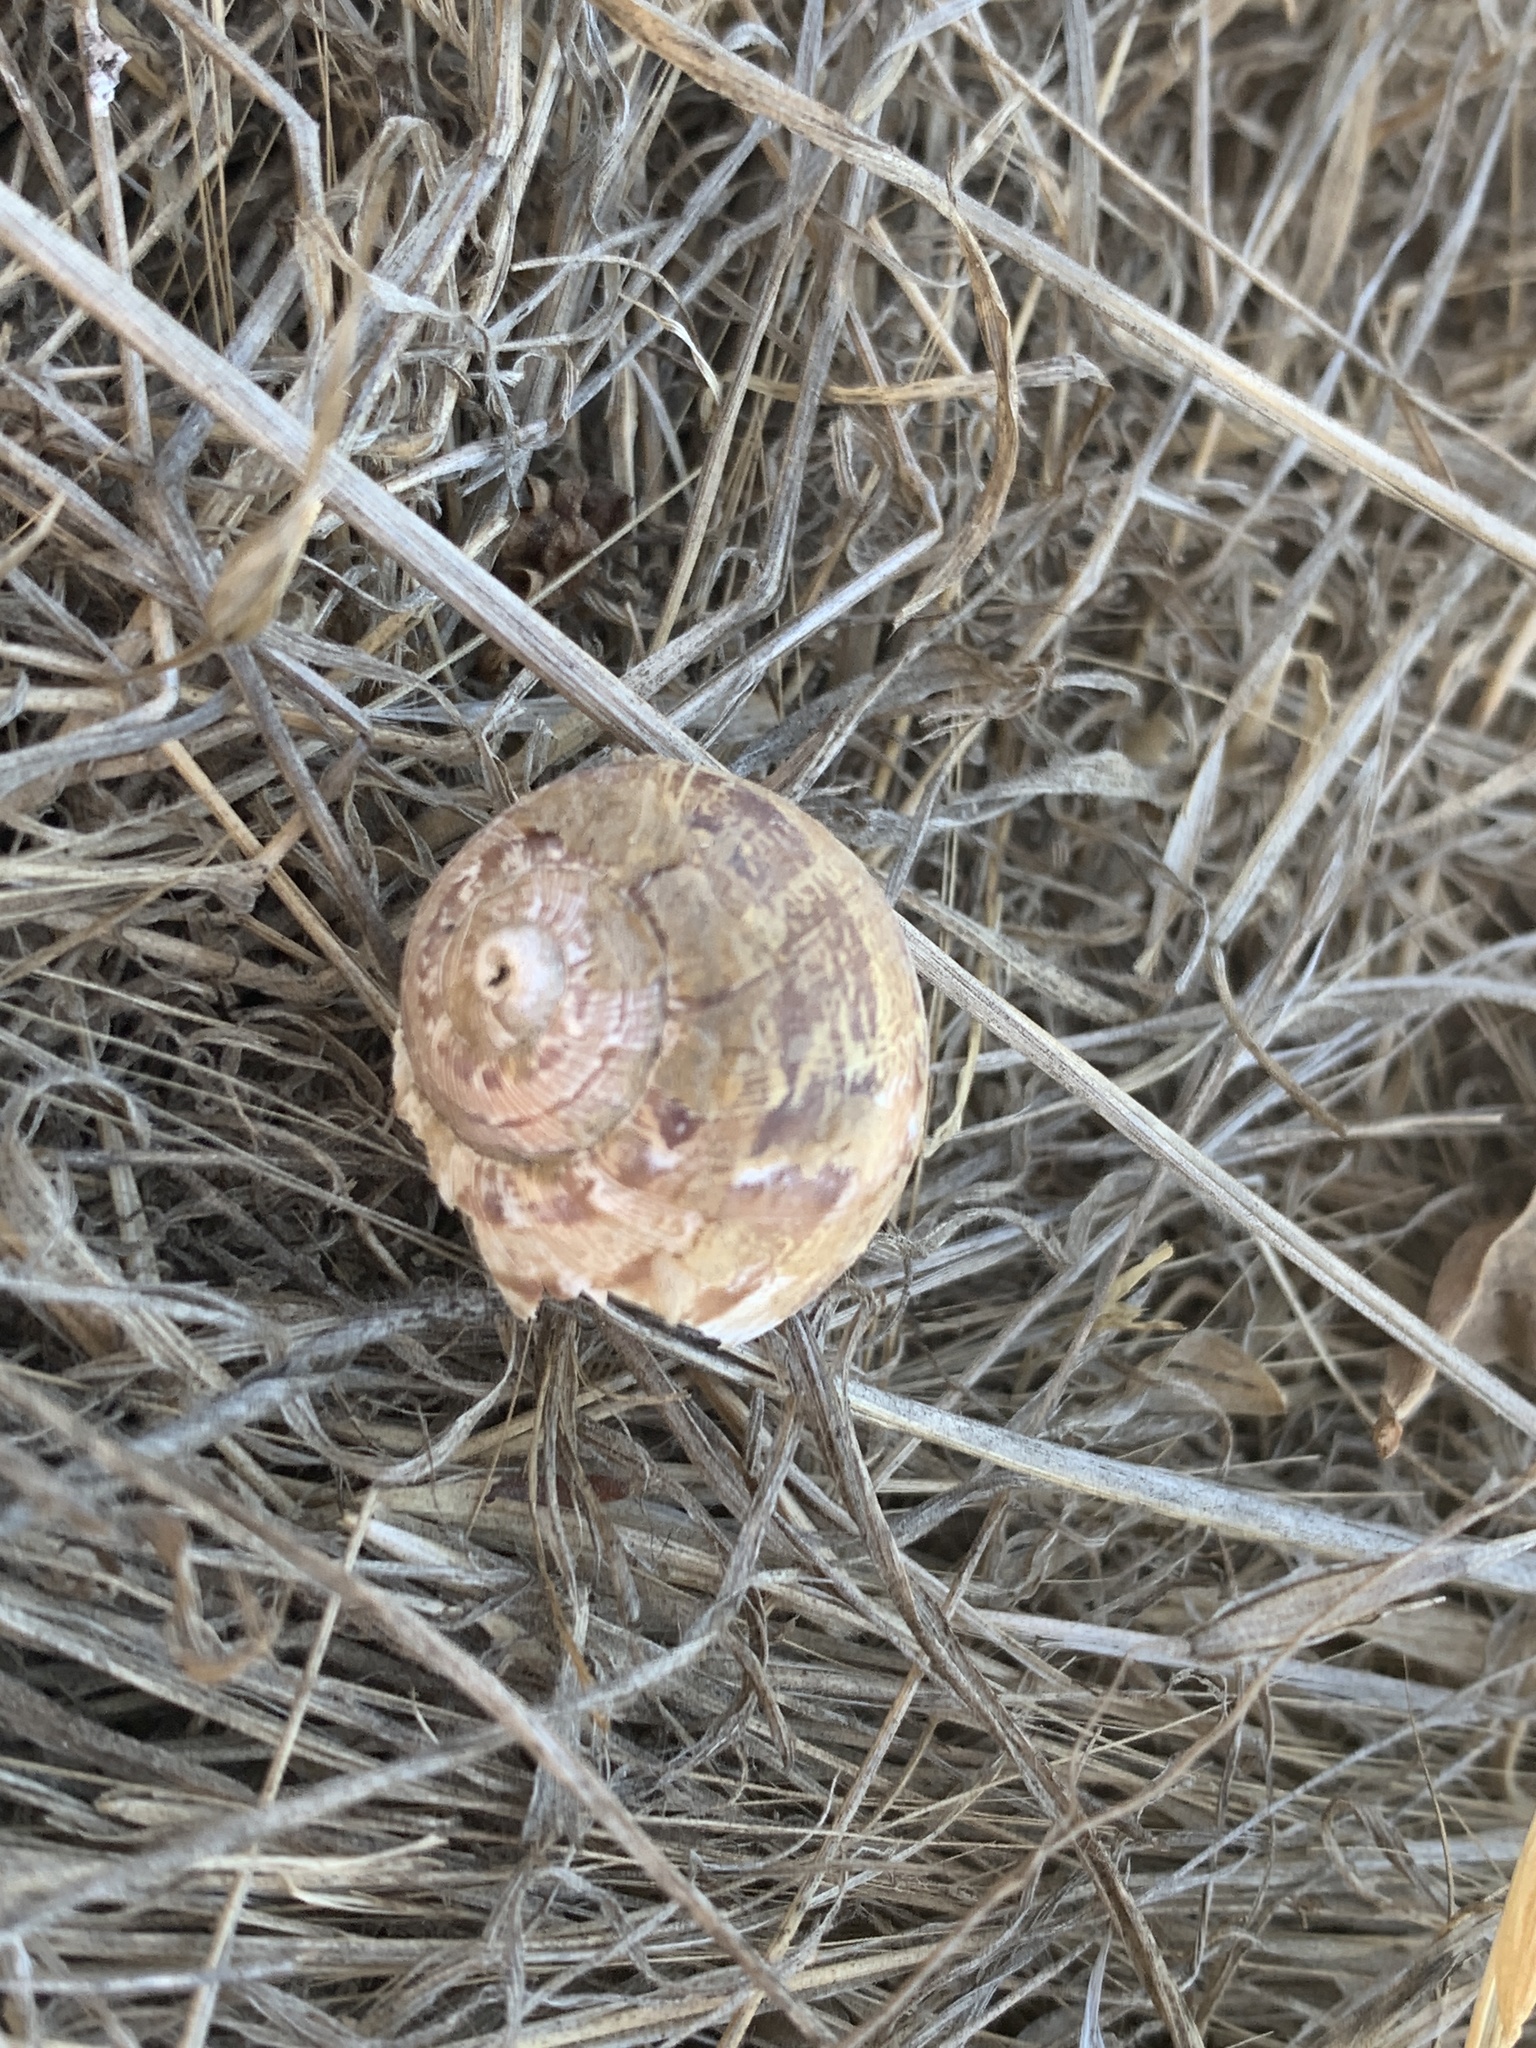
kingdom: Animalia
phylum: Mollusca
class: Gastropoda
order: Stylommatophora
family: Helicidae
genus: Cornu
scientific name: Cornu aspersum
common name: Brown garden snail
